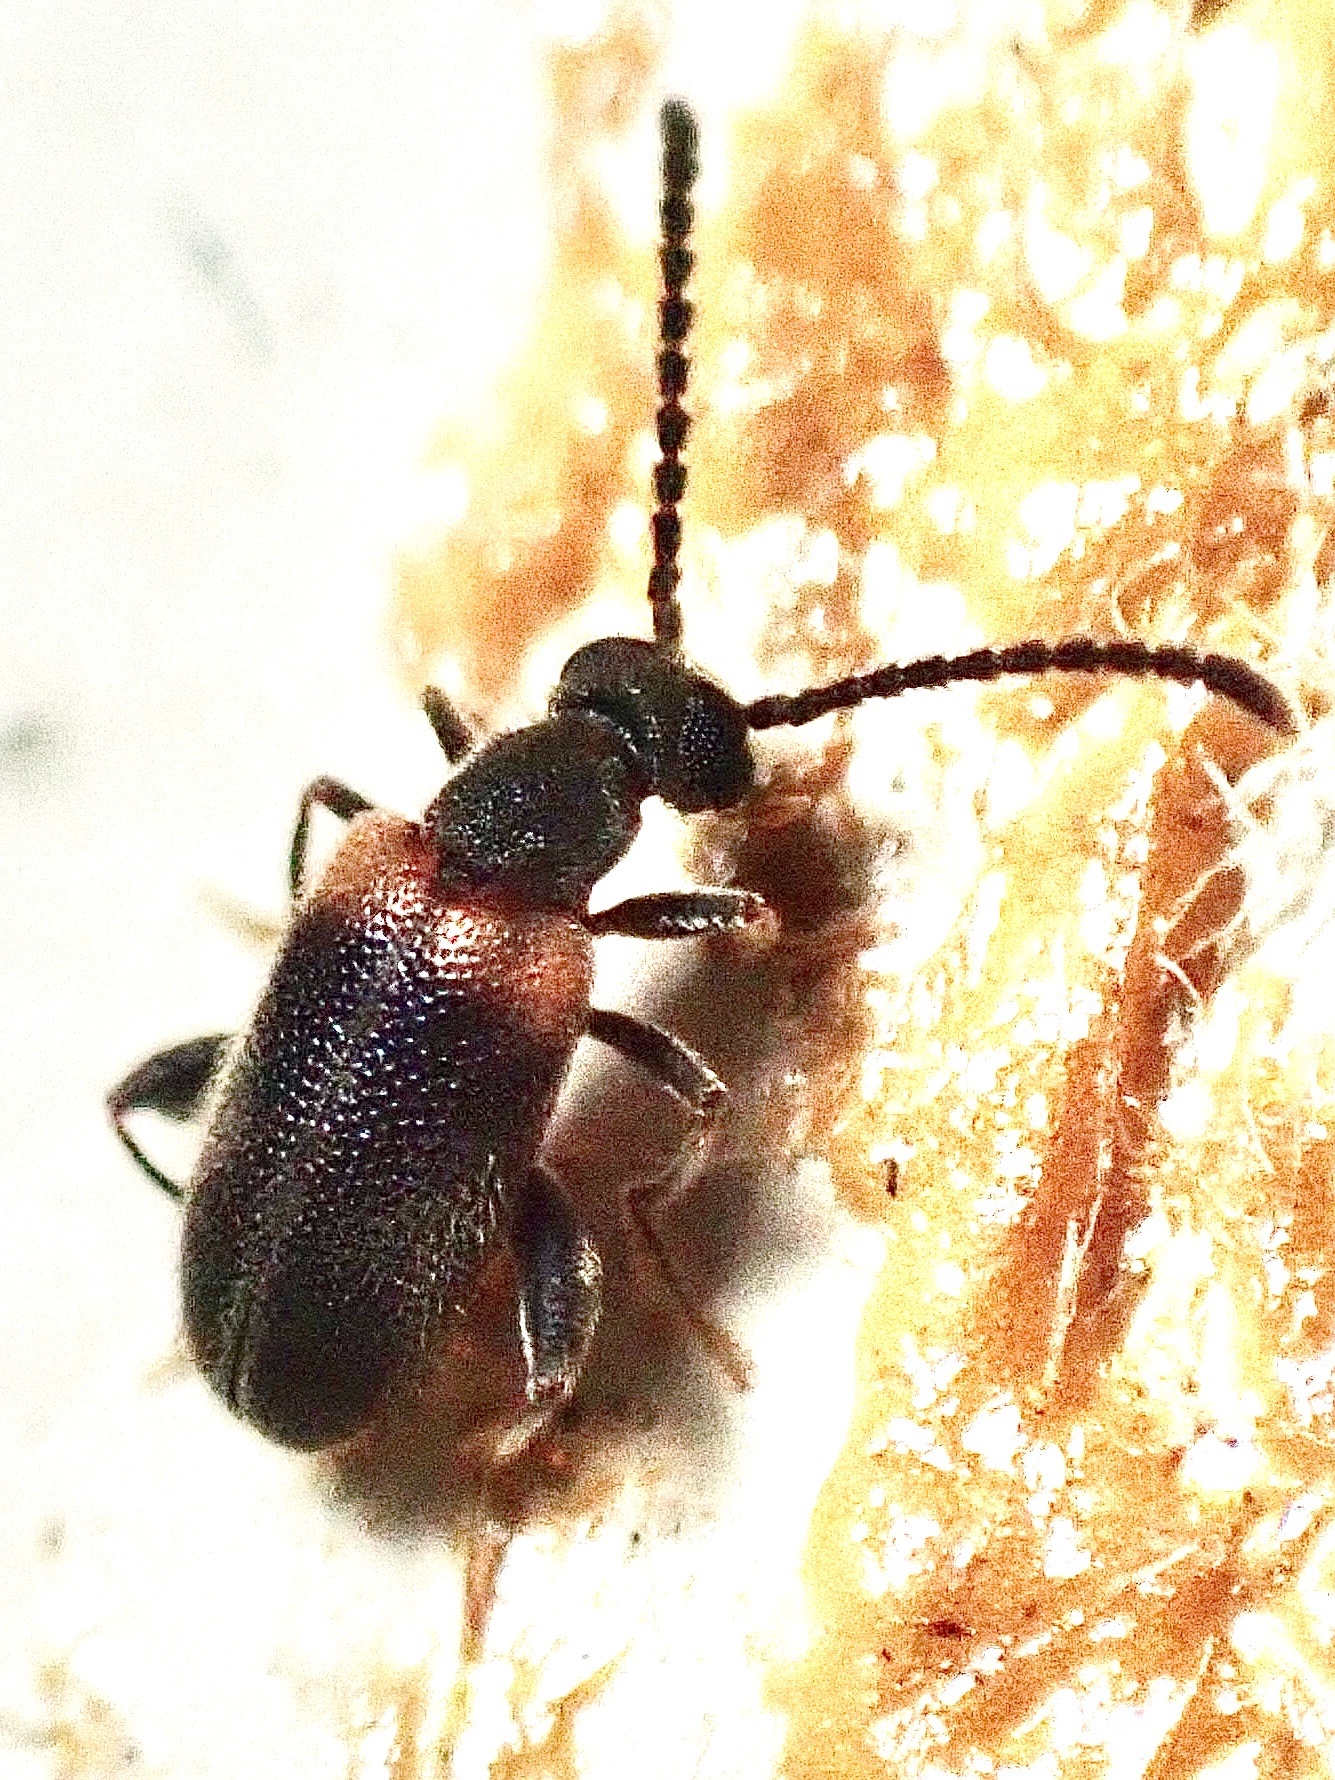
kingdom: Animalia
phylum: Arthropoda
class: Insecta
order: Coleoptera
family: Aderidae
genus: Elonus
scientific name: Elonus basalis
